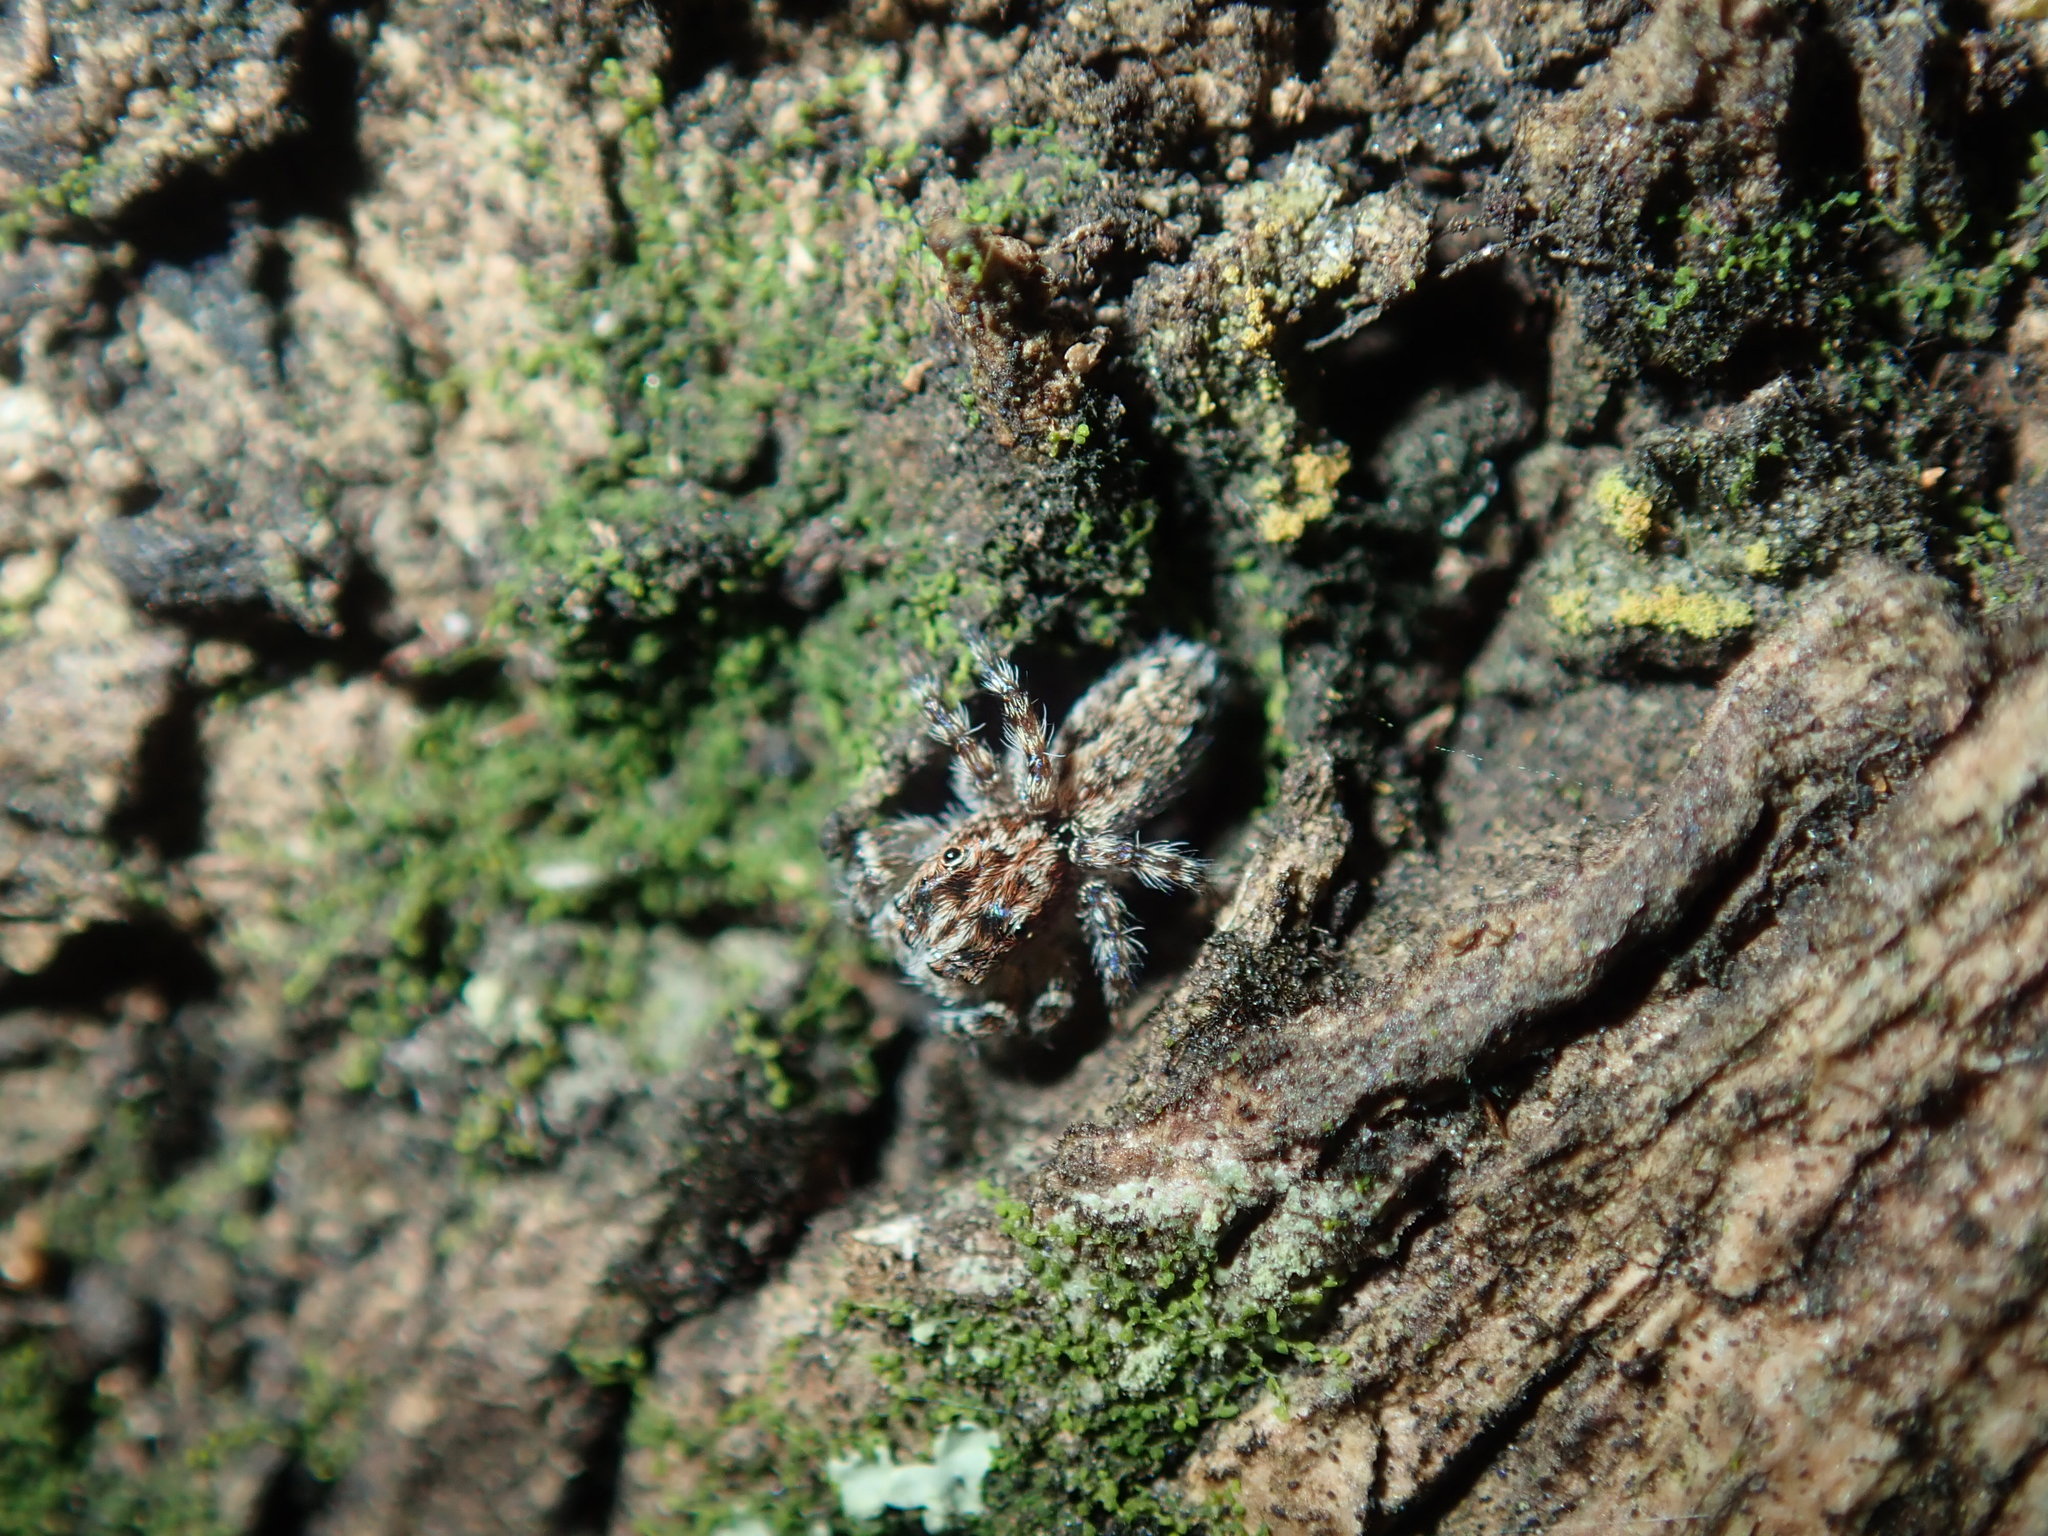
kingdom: Animalia
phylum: Arthropoda
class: Arachnida
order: Araneae
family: Salticidae
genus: Clynotis
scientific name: Clynotis severus
